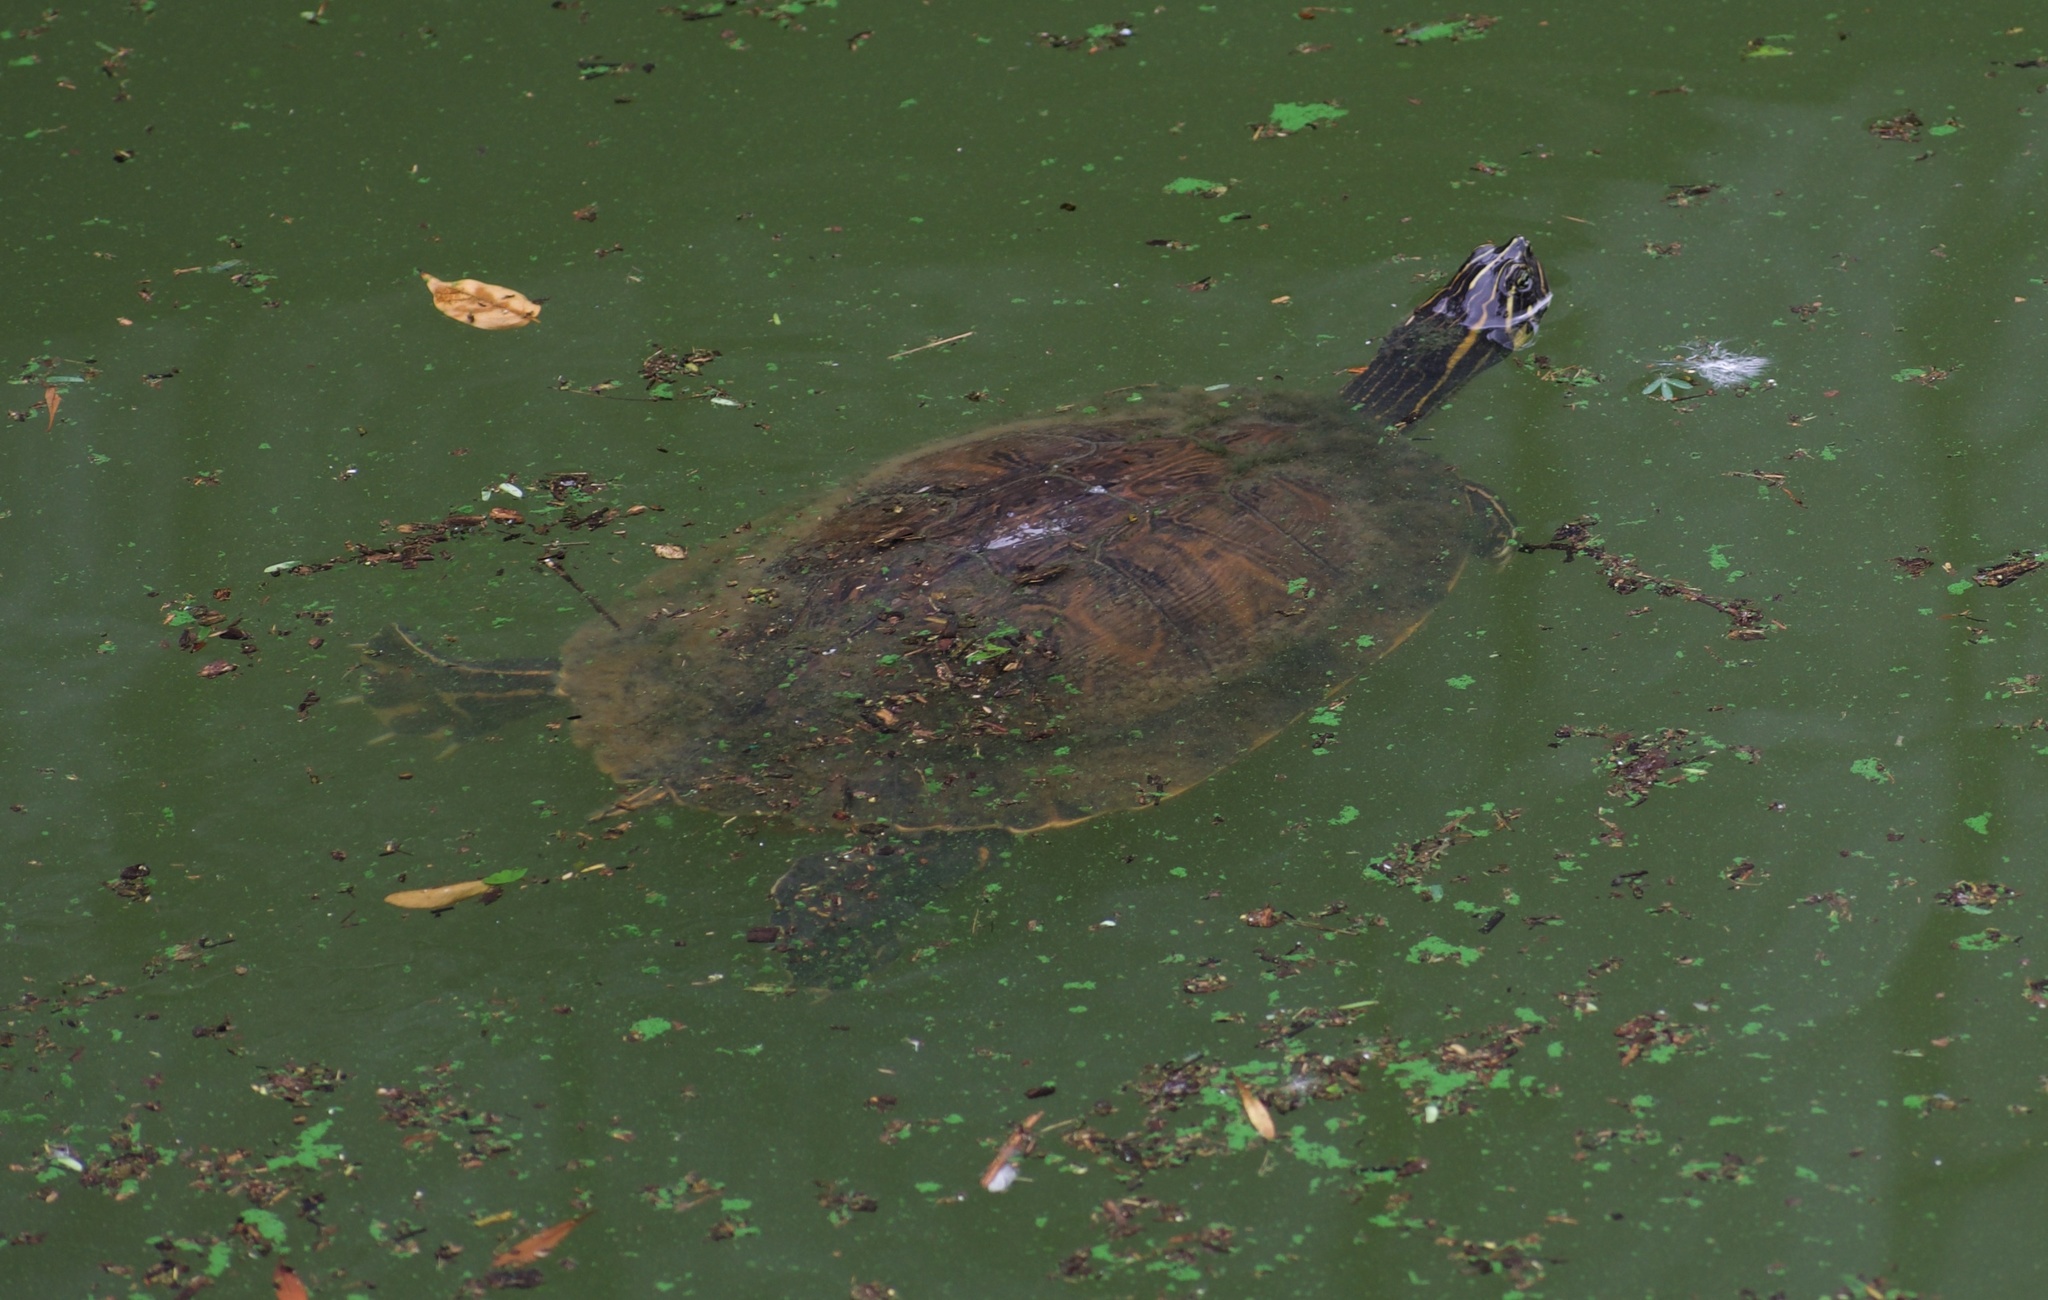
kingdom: Animalia
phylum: Chordata
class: Testudines
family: Emydidae
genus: Trachemys
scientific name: Trachemys scripta
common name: Slider
